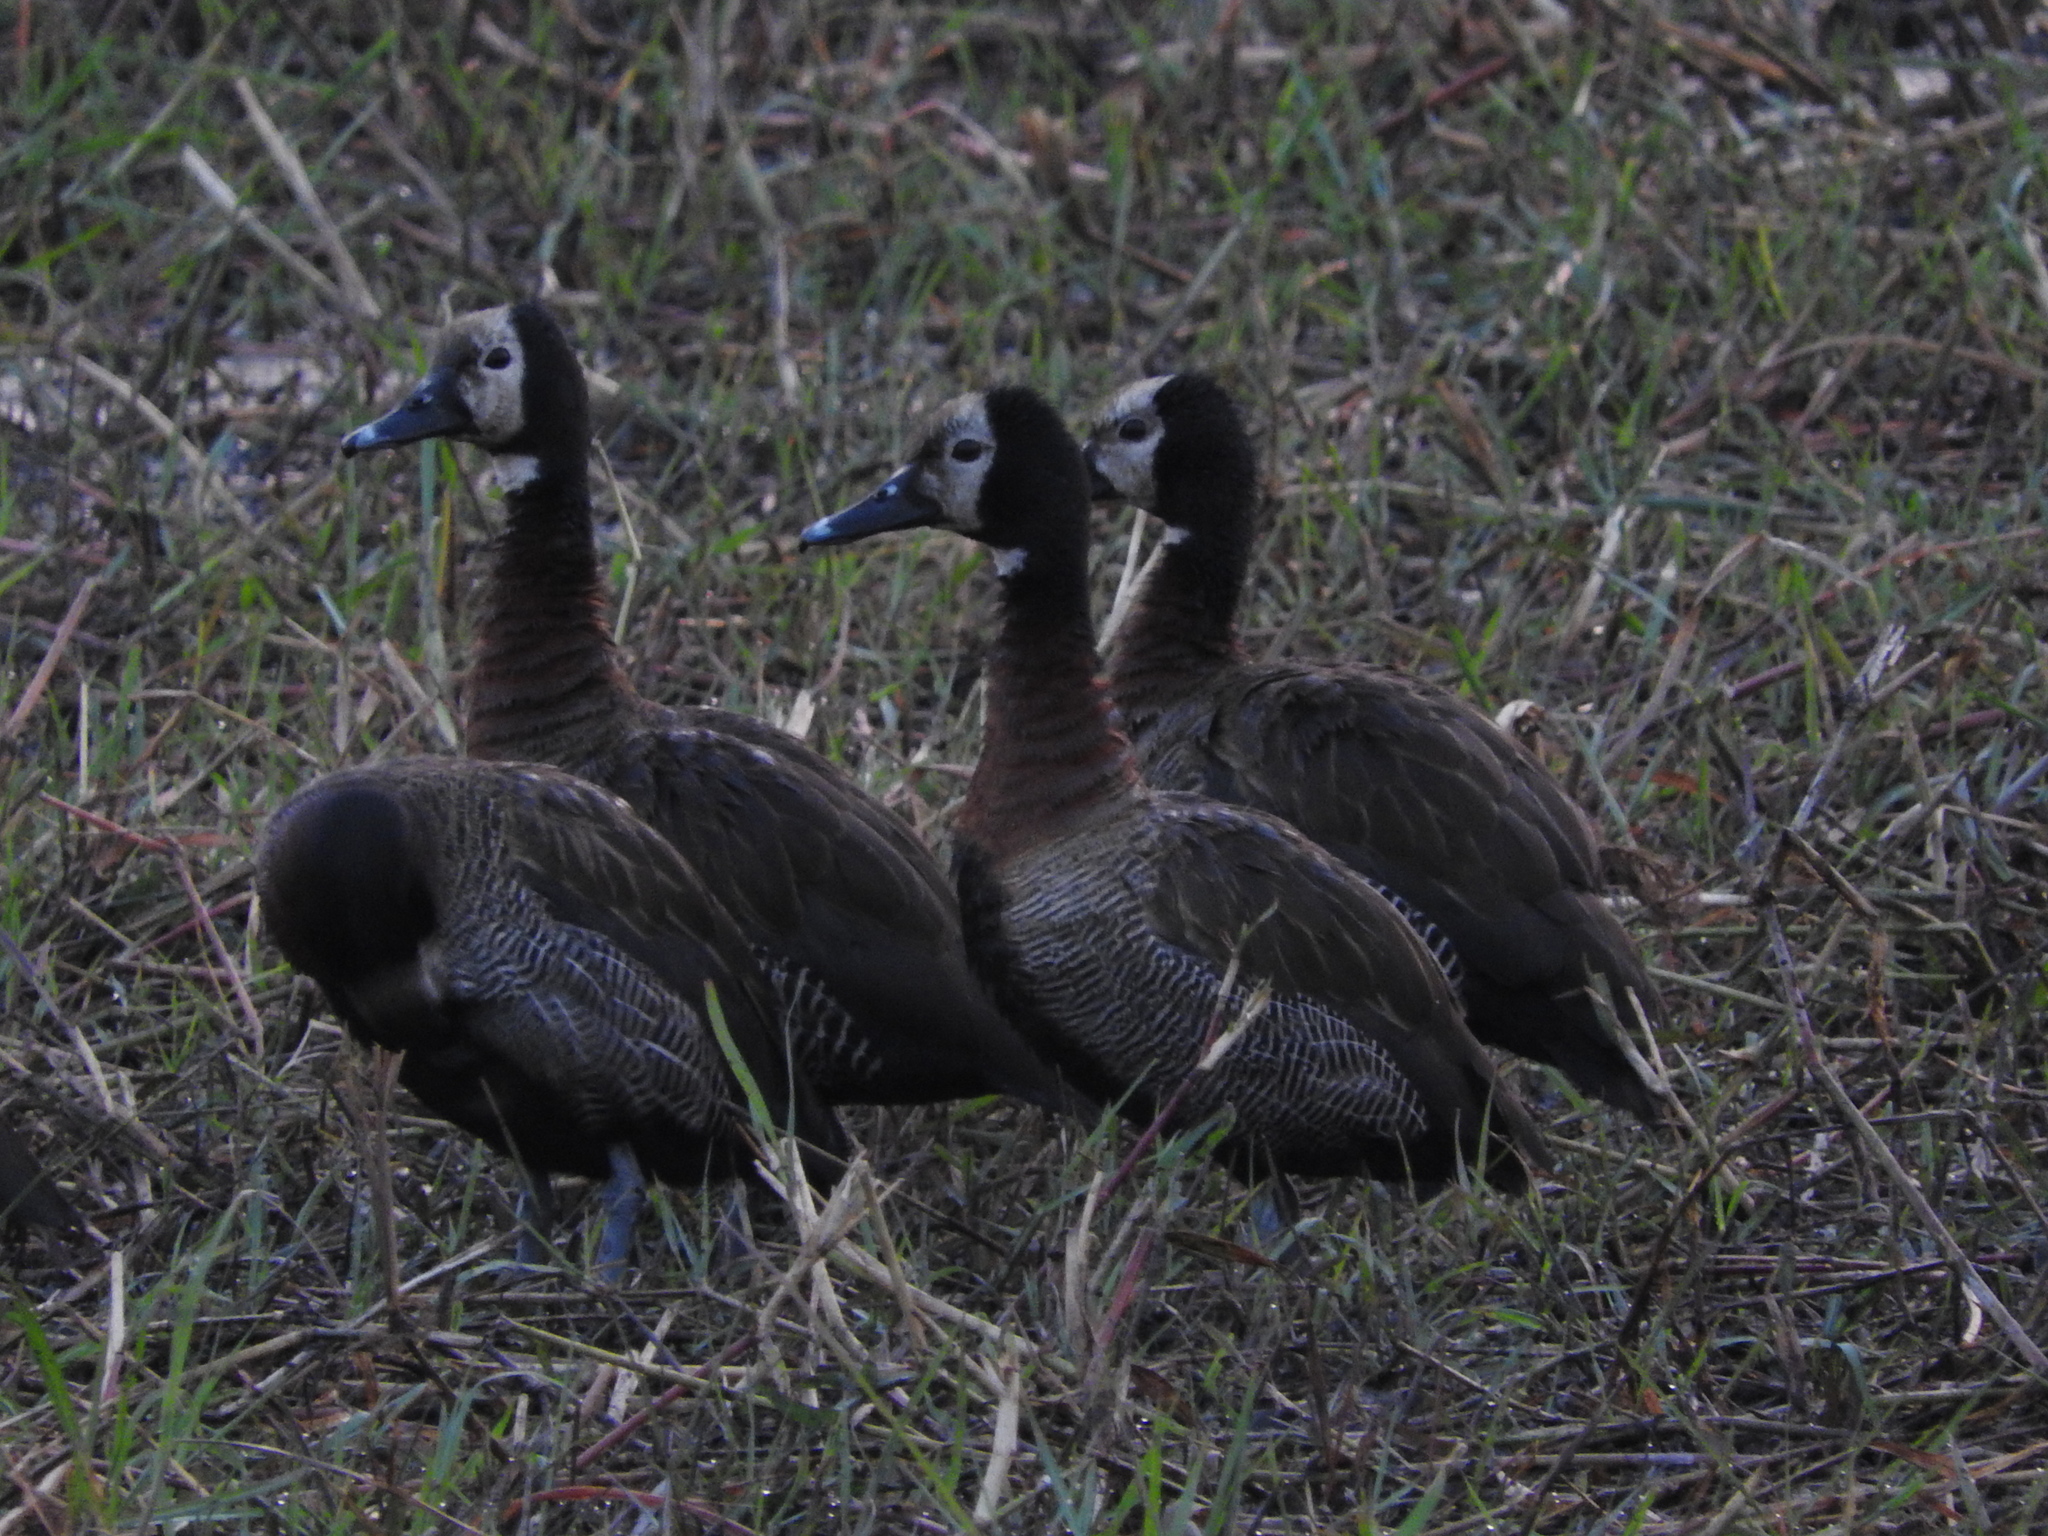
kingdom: Animalia
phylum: Chordata
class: Aves
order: Anseriformes
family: Anatidae
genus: Dendrocygna
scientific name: Dendrocygna viduata
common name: White-faced whistling duck
